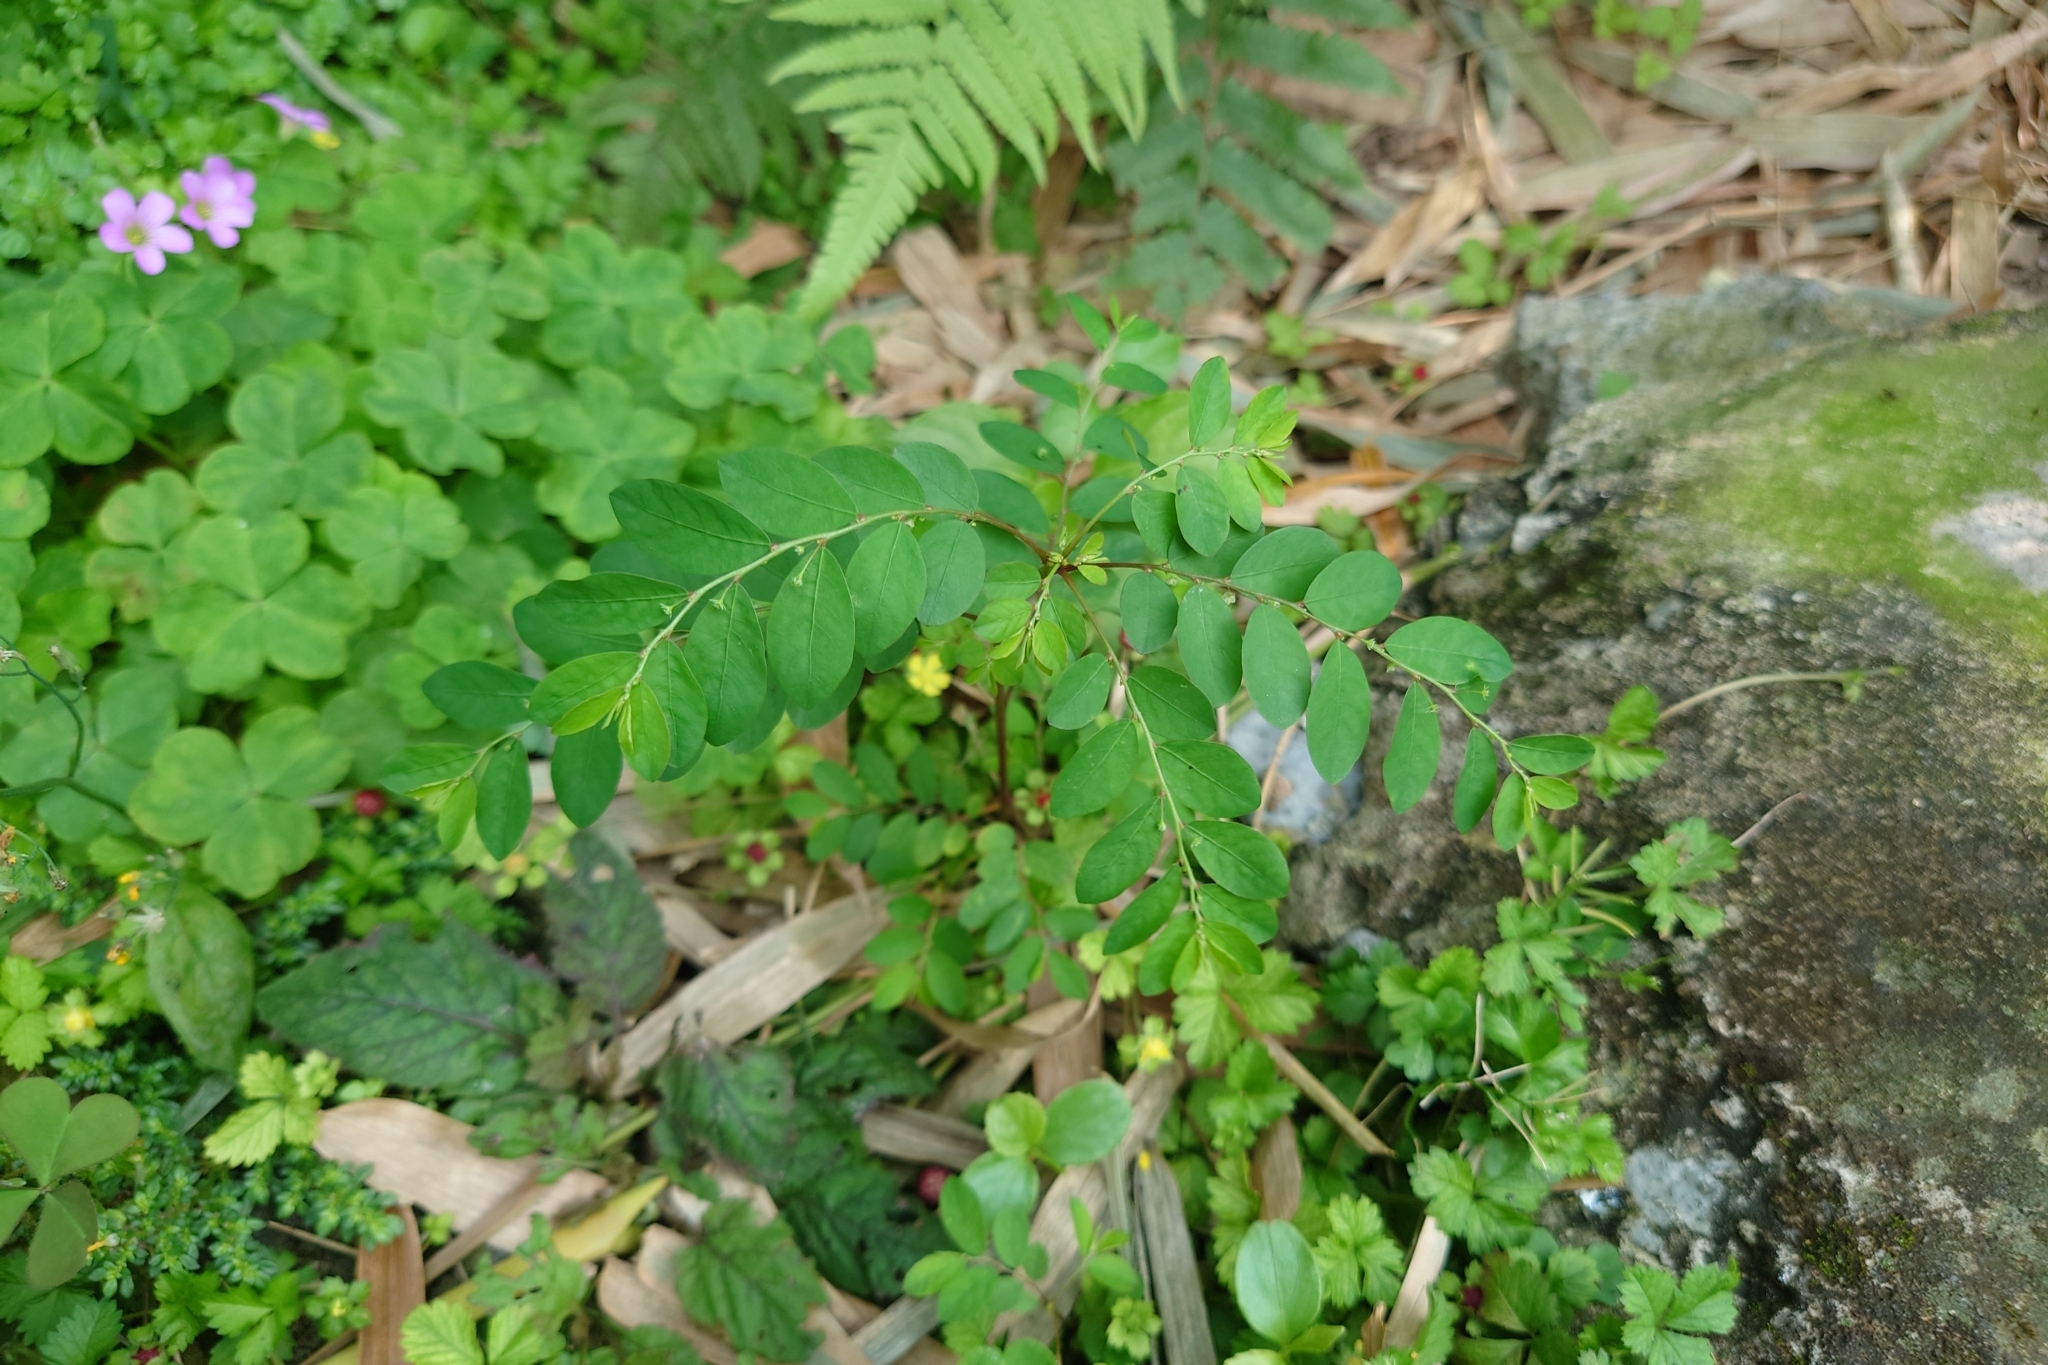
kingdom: Plantae
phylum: Tracheophyta
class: Magnoliopsida
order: Malpighiales
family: Phyllanthaceae
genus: Phyllanthus
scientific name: Phyllanthus tenellus
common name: Mascarene island leaf-flower
